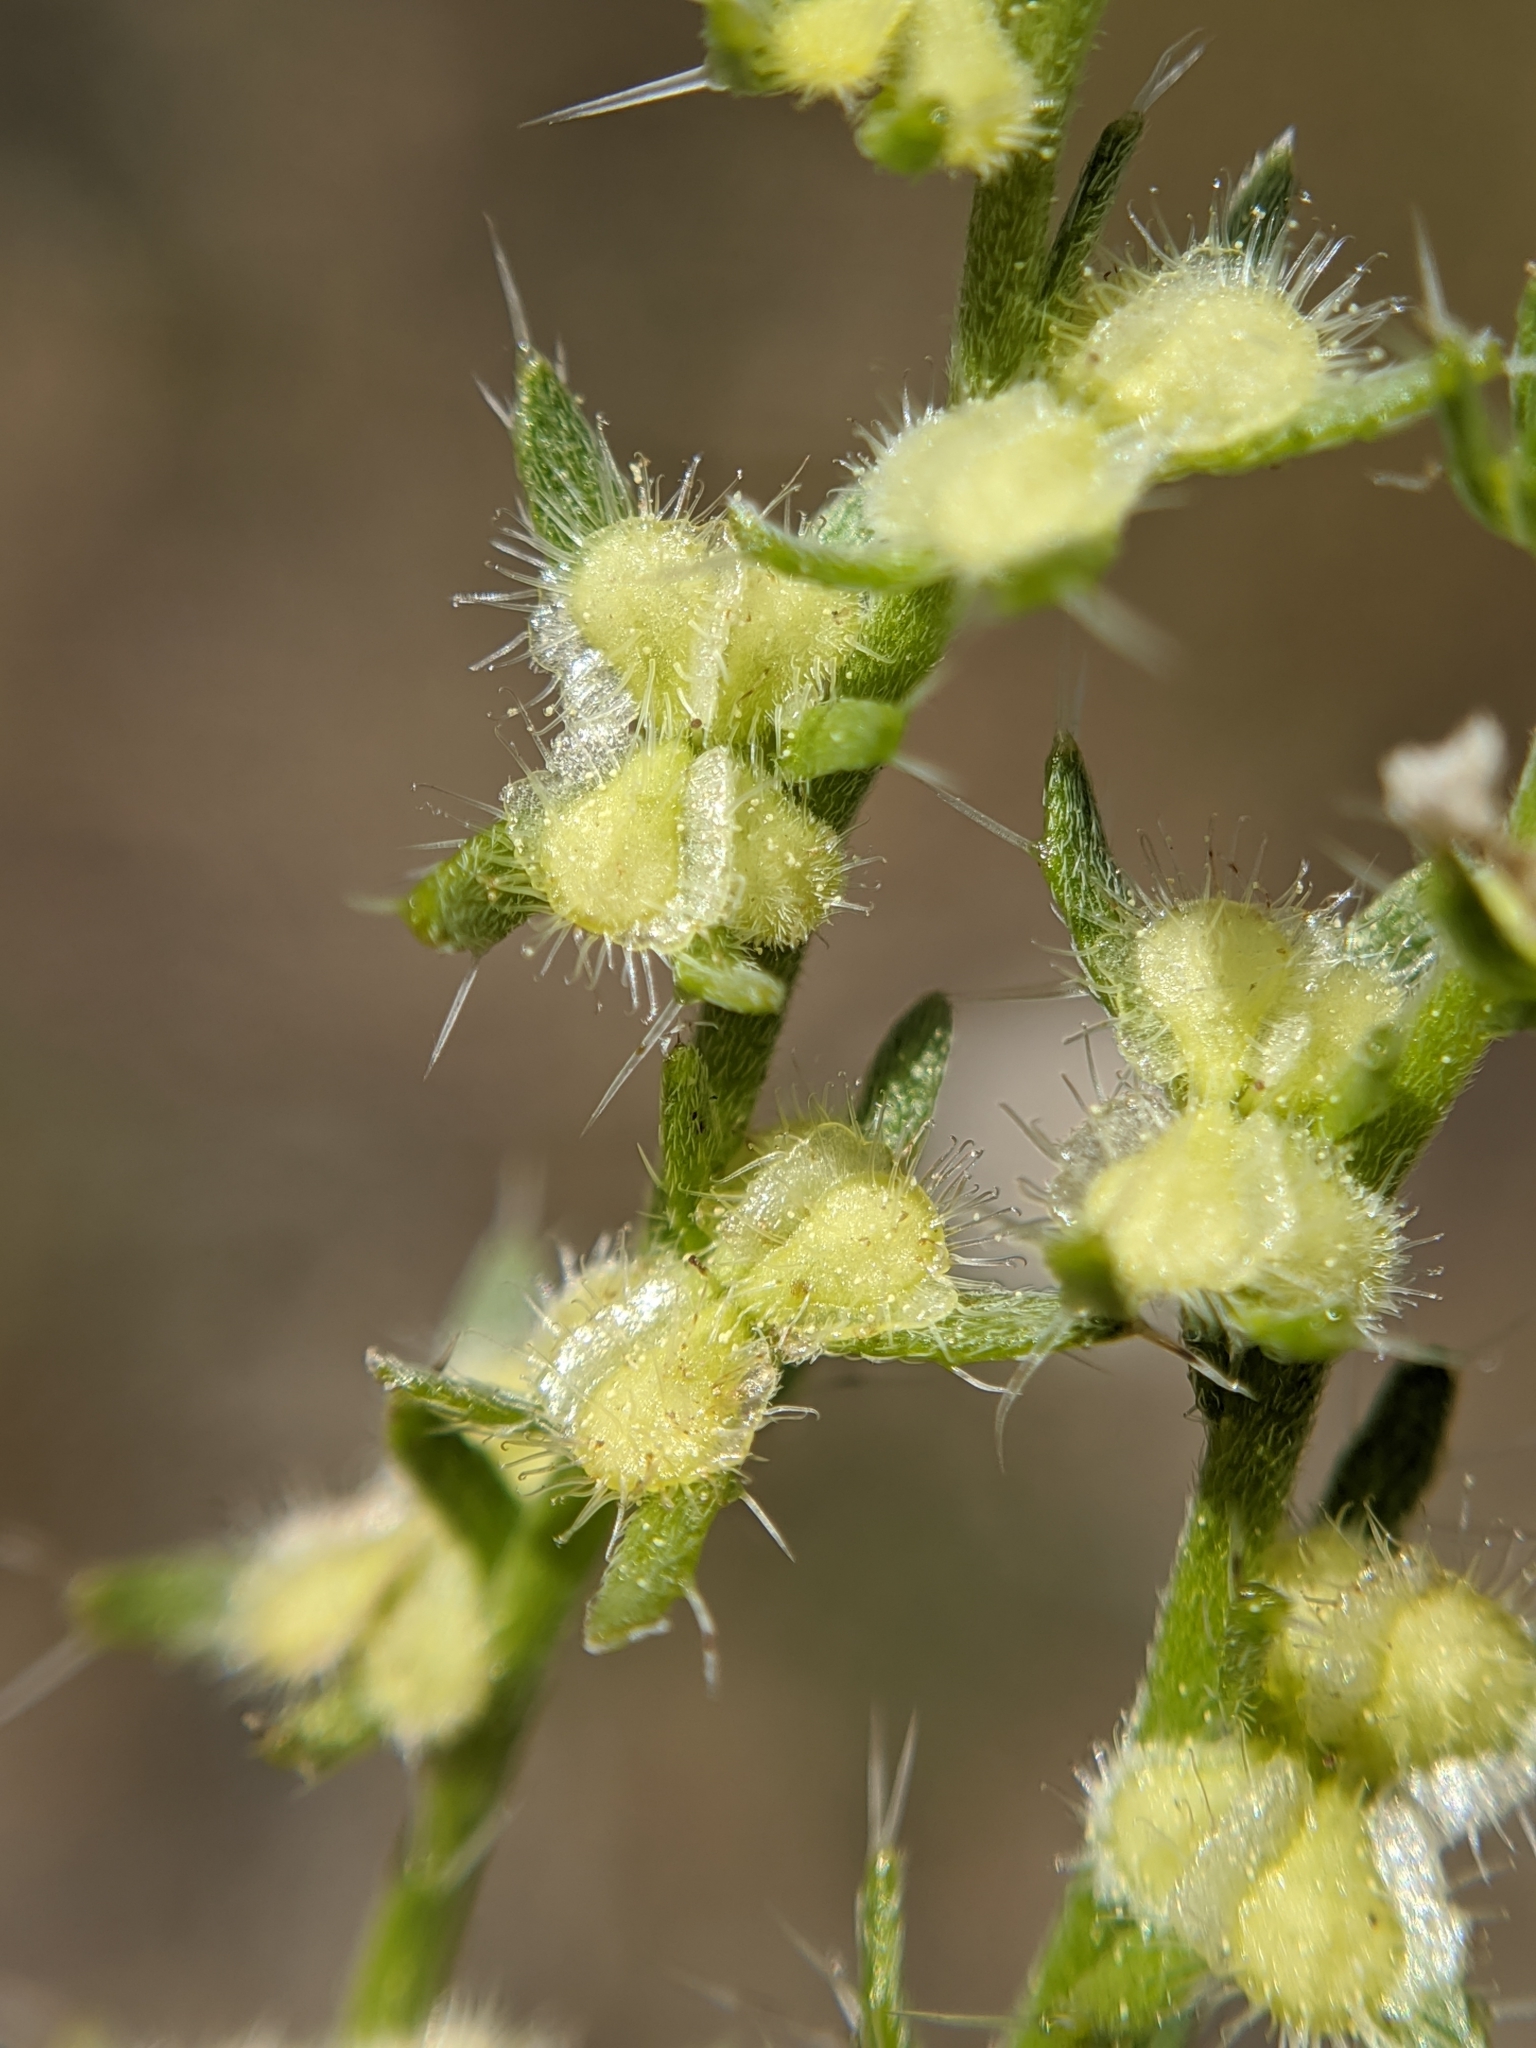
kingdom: Plantae
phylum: Tracheophyta
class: Magnoliopsida
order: Boraginales
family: Boraginaceae
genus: Pectocarya
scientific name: Pectocarya setosa
